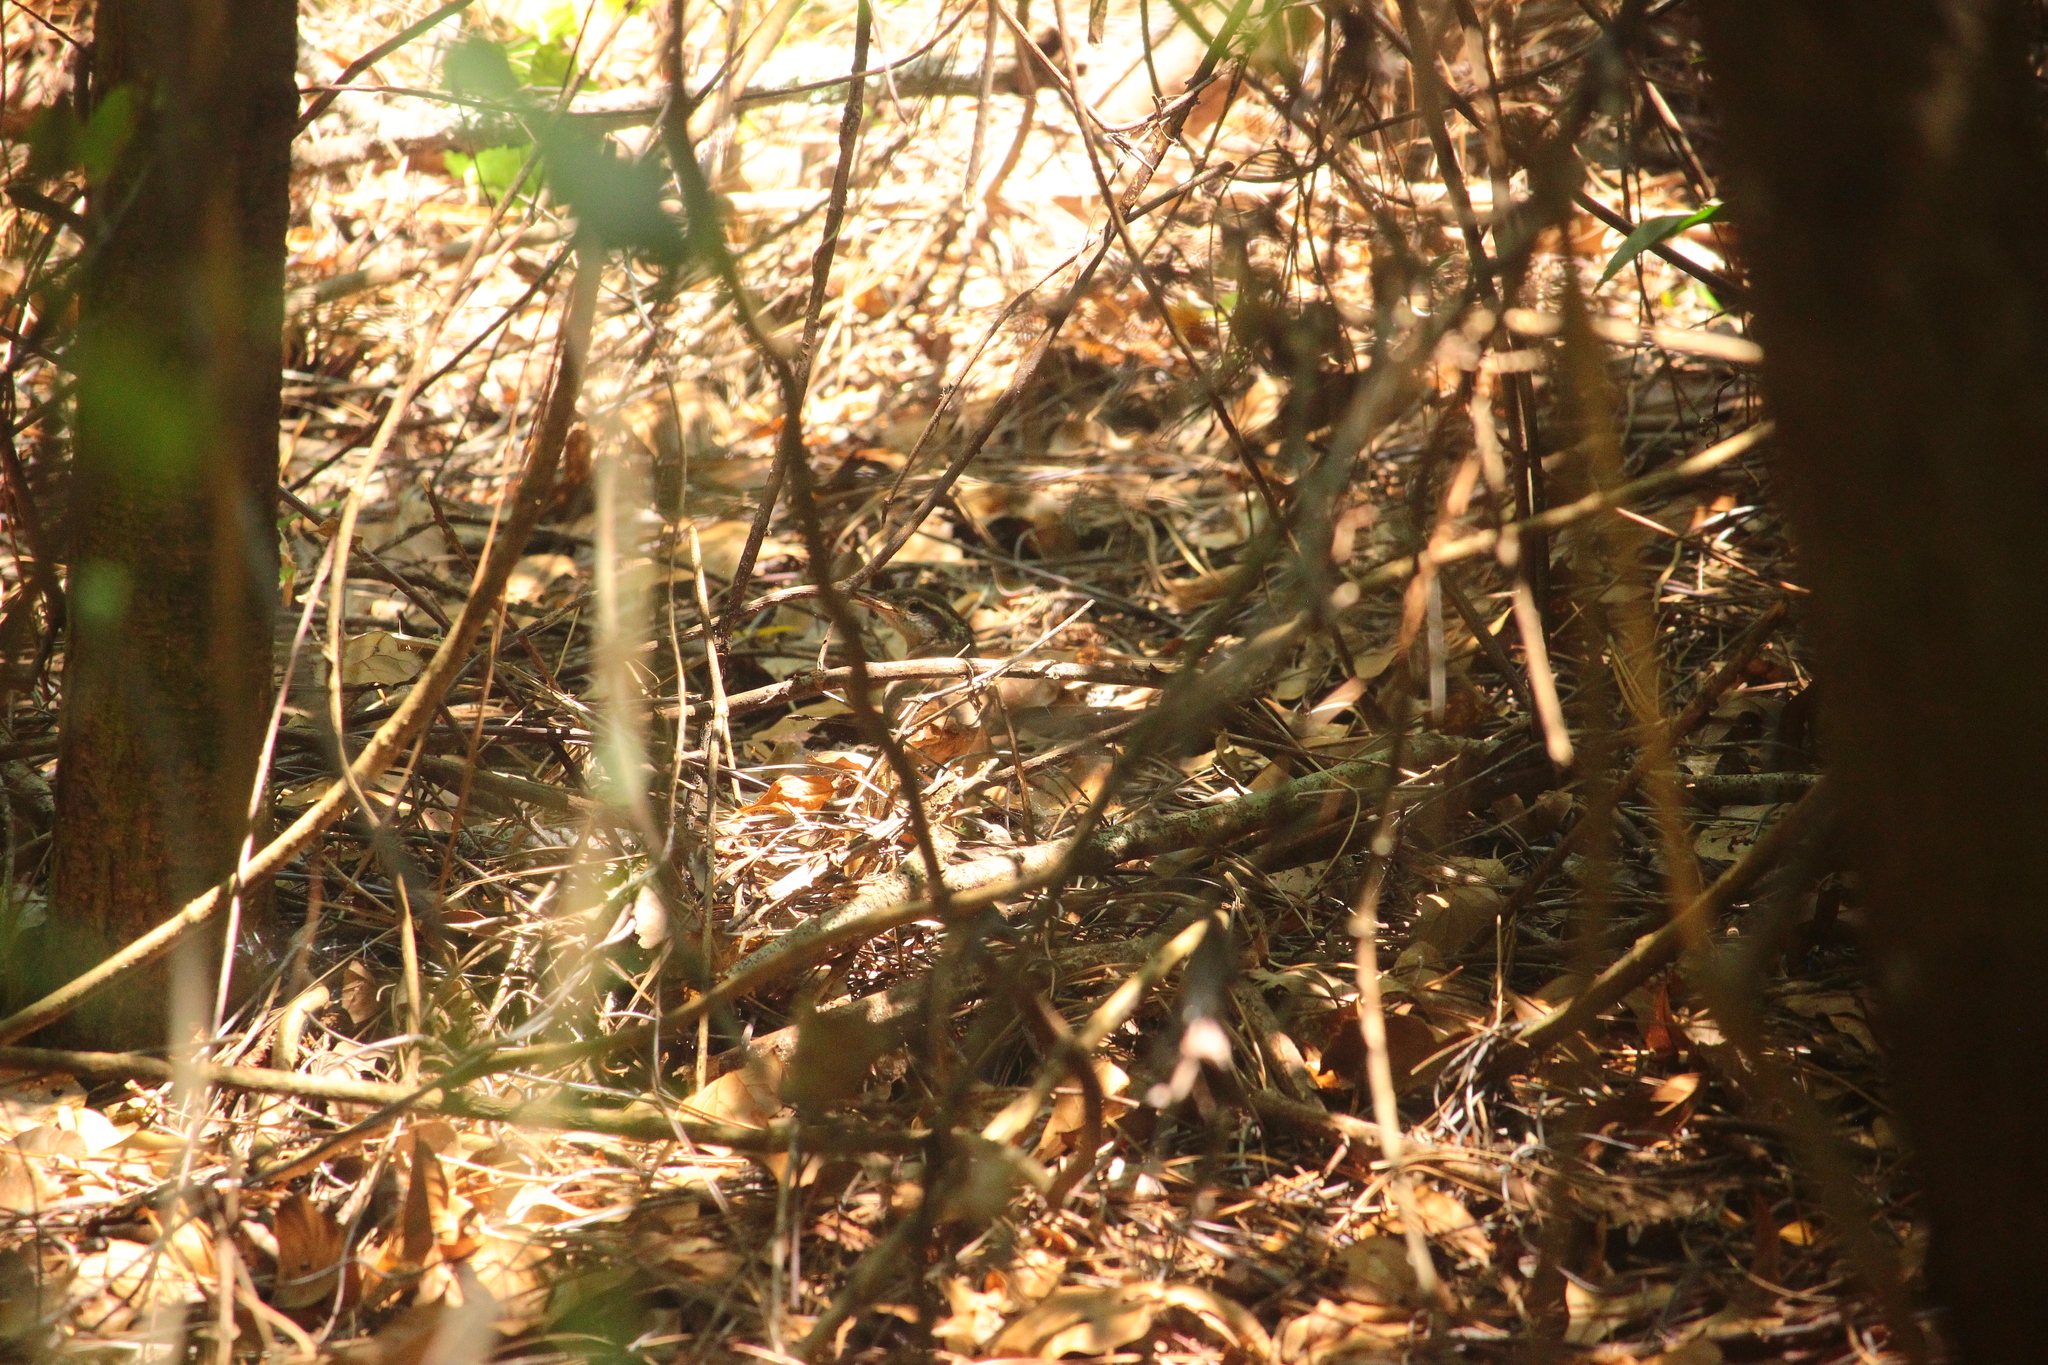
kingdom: Animalia
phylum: Chordata
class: Aves
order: Passeriformes
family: Troglodytidae
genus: Thryothorus
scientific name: Thryothorus ludovicianus
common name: Carolina wren
